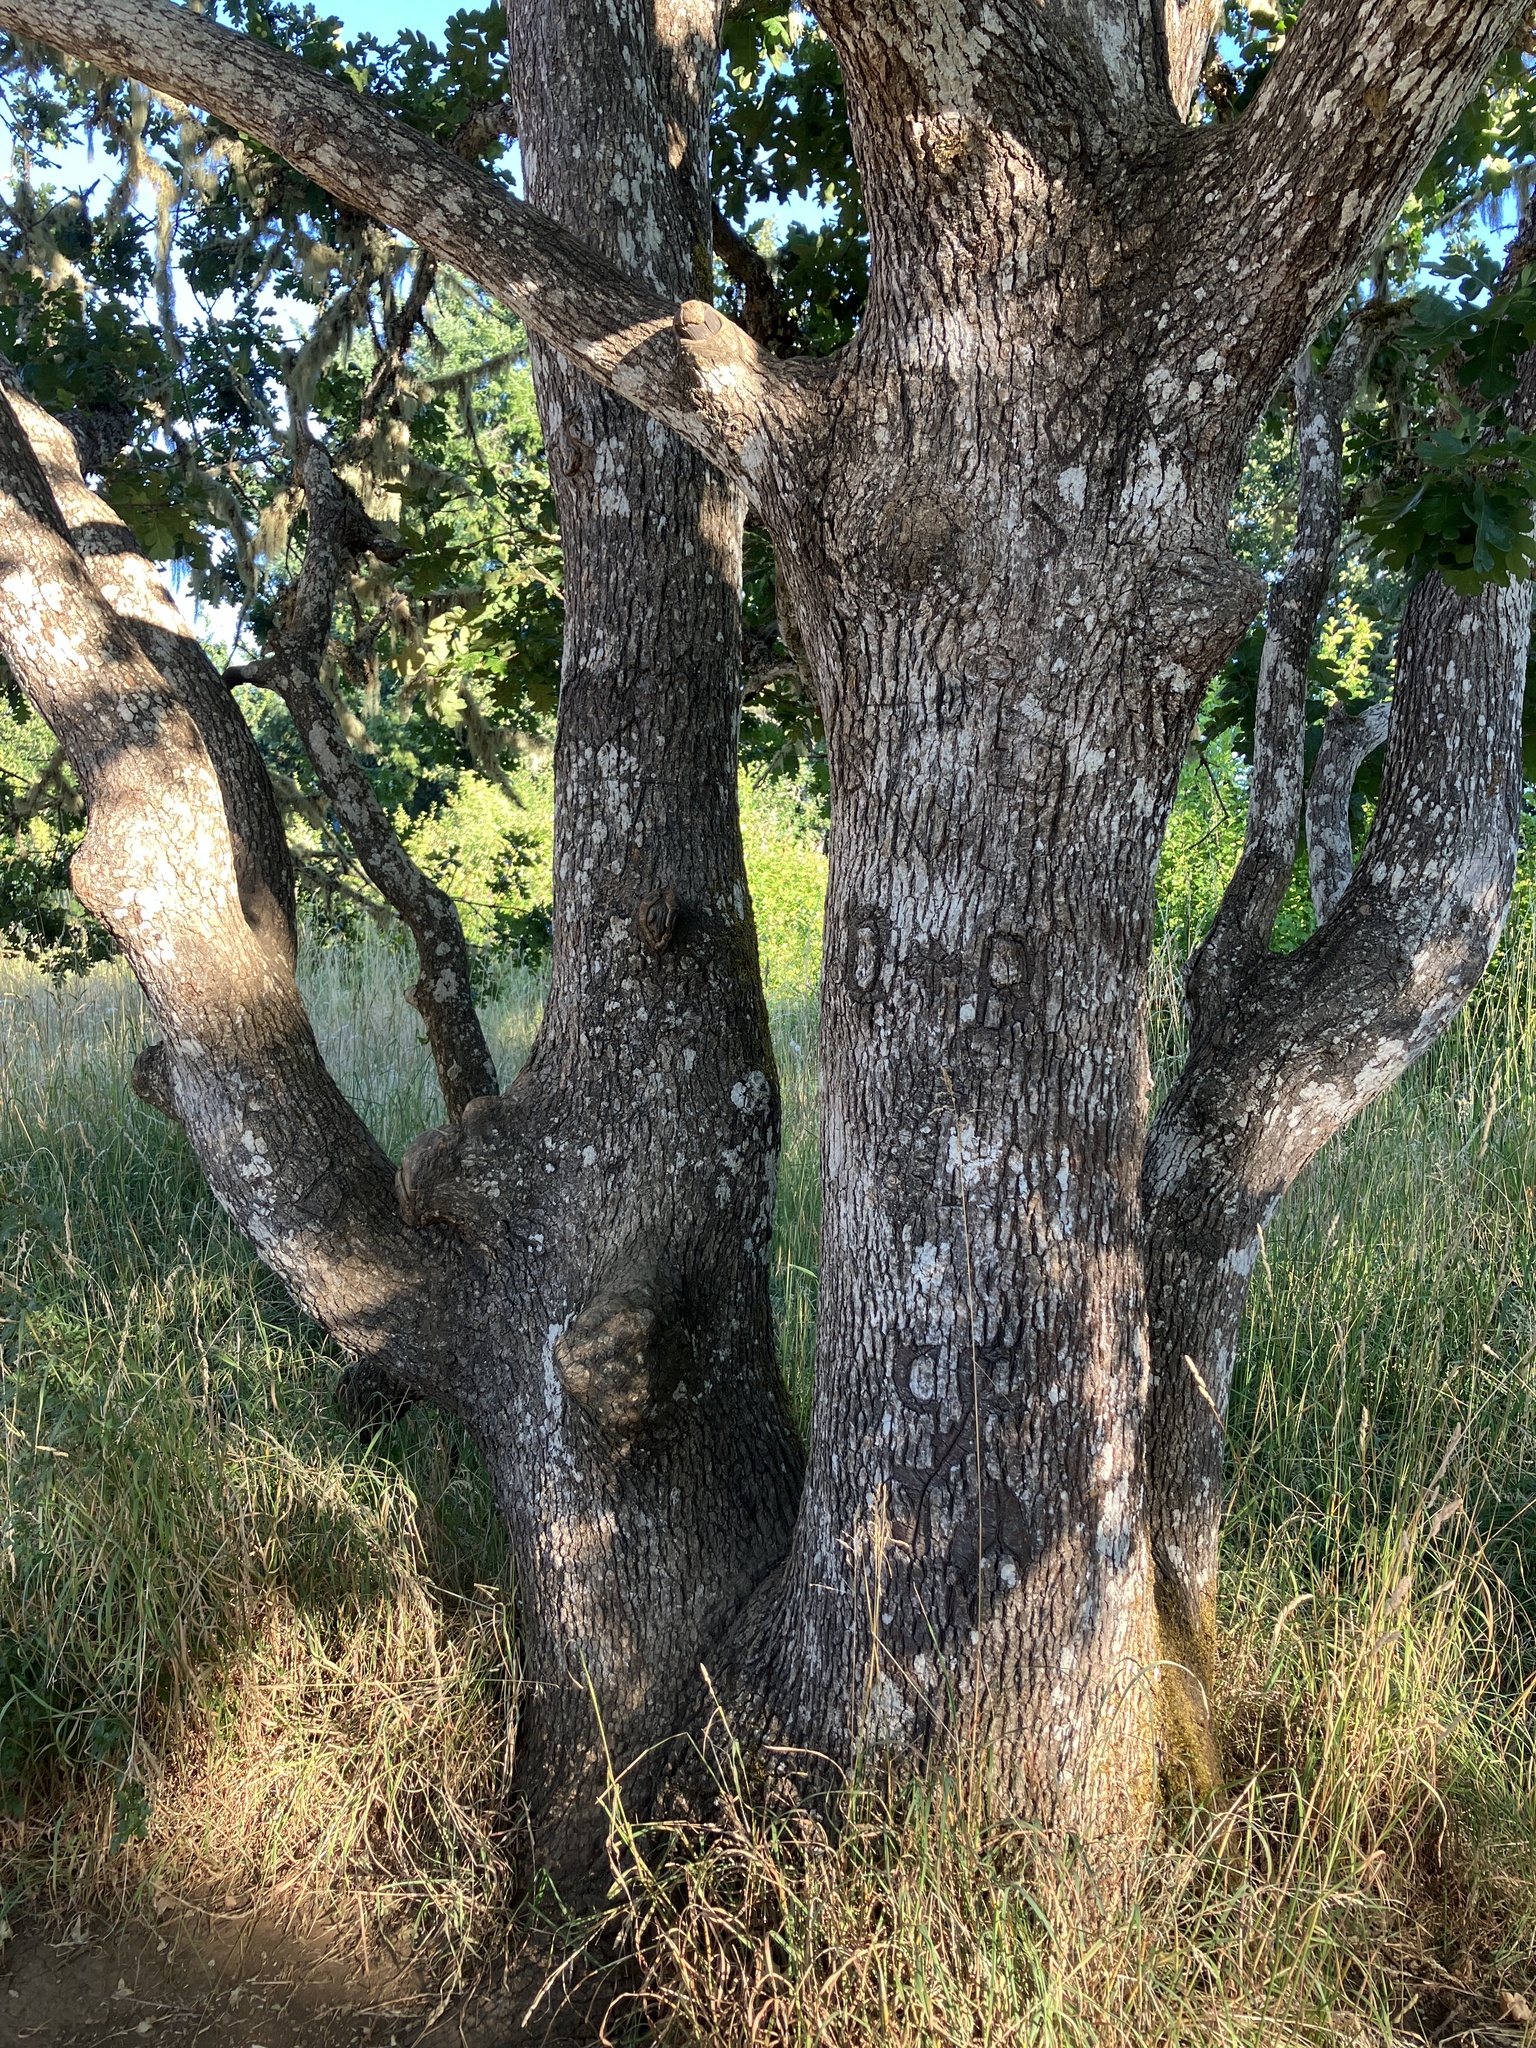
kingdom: Plantae
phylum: Tracheophyta
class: Magnoliopsida
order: Fagales
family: Fagaceae
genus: Quercus
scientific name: Quercus garryana
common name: Garry oak
